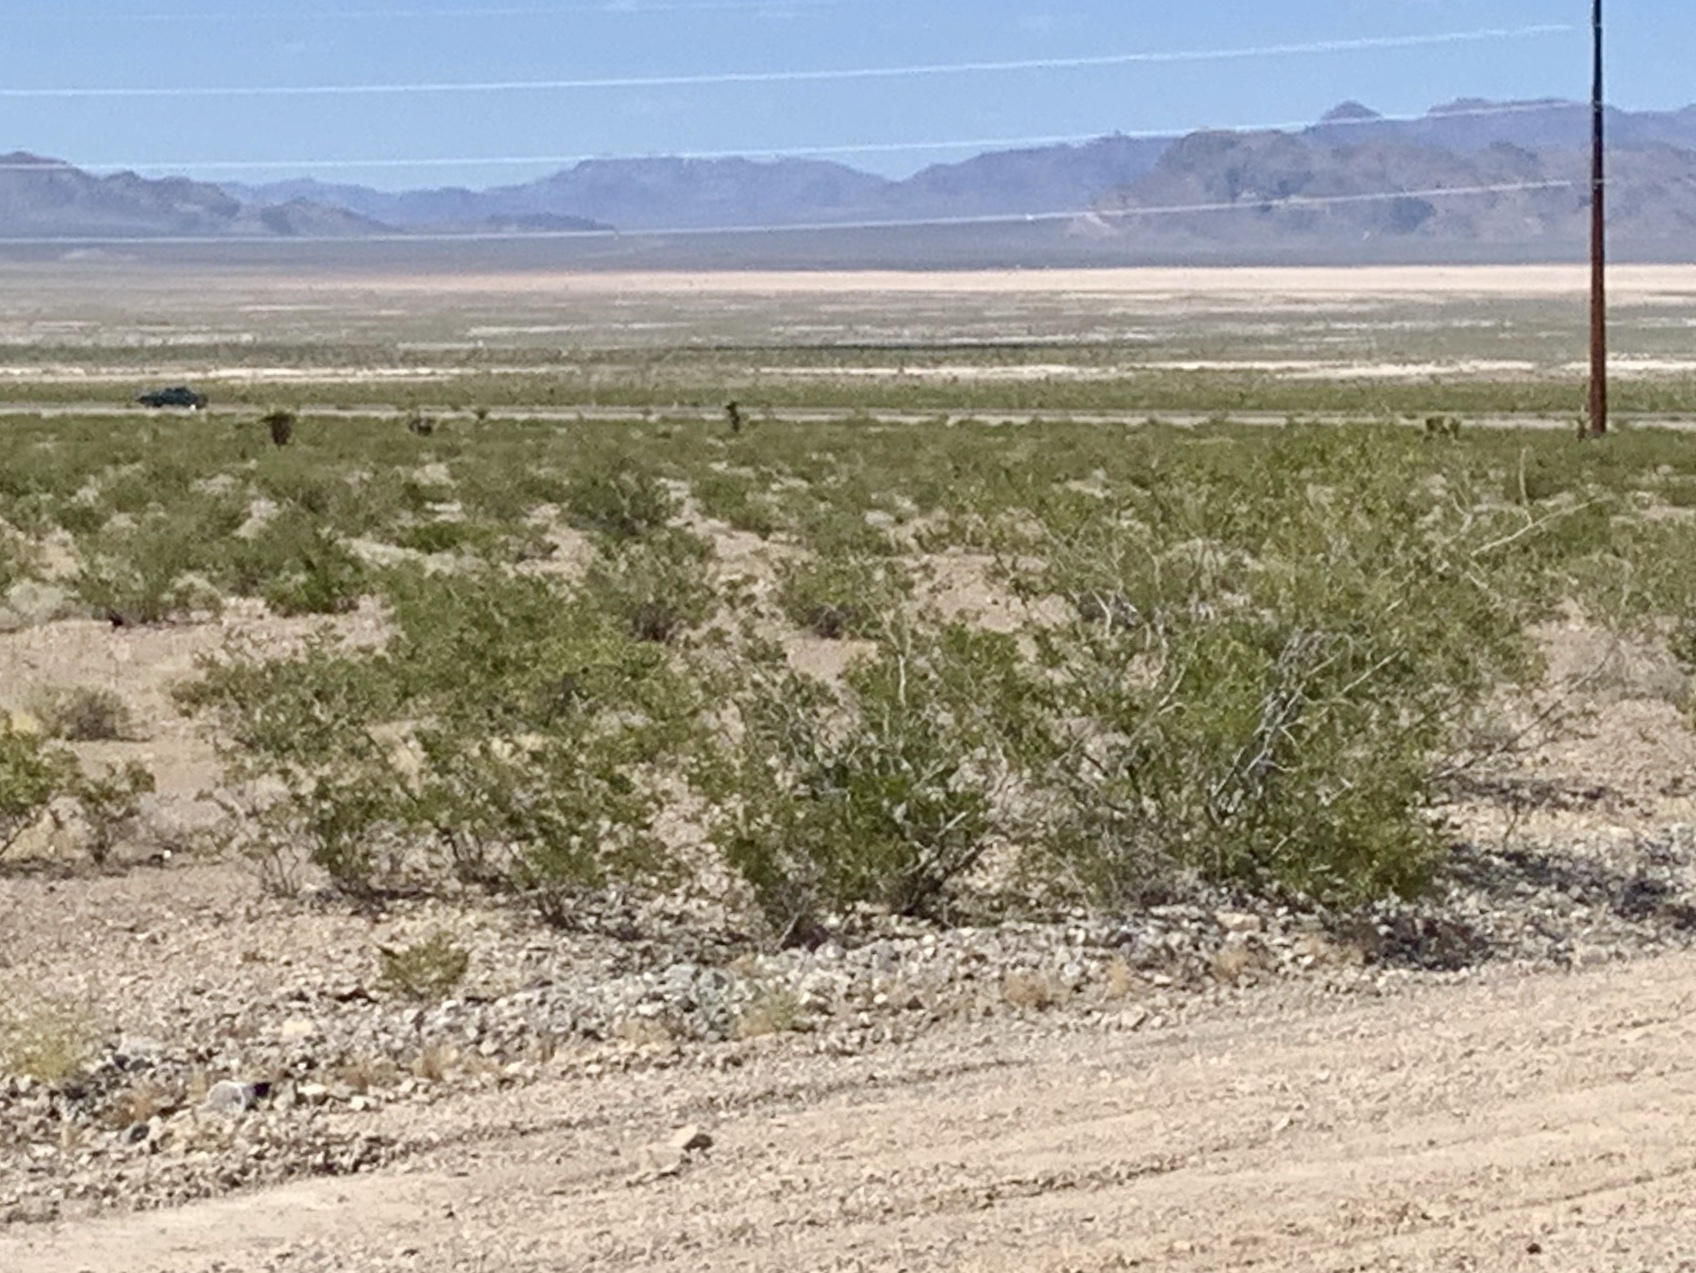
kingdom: Plantae
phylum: Tracheophyta
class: Magnoliopsida
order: Zygophyllales
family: Zygophyllaceae
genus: Larrea
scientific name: Larrea tridentata
